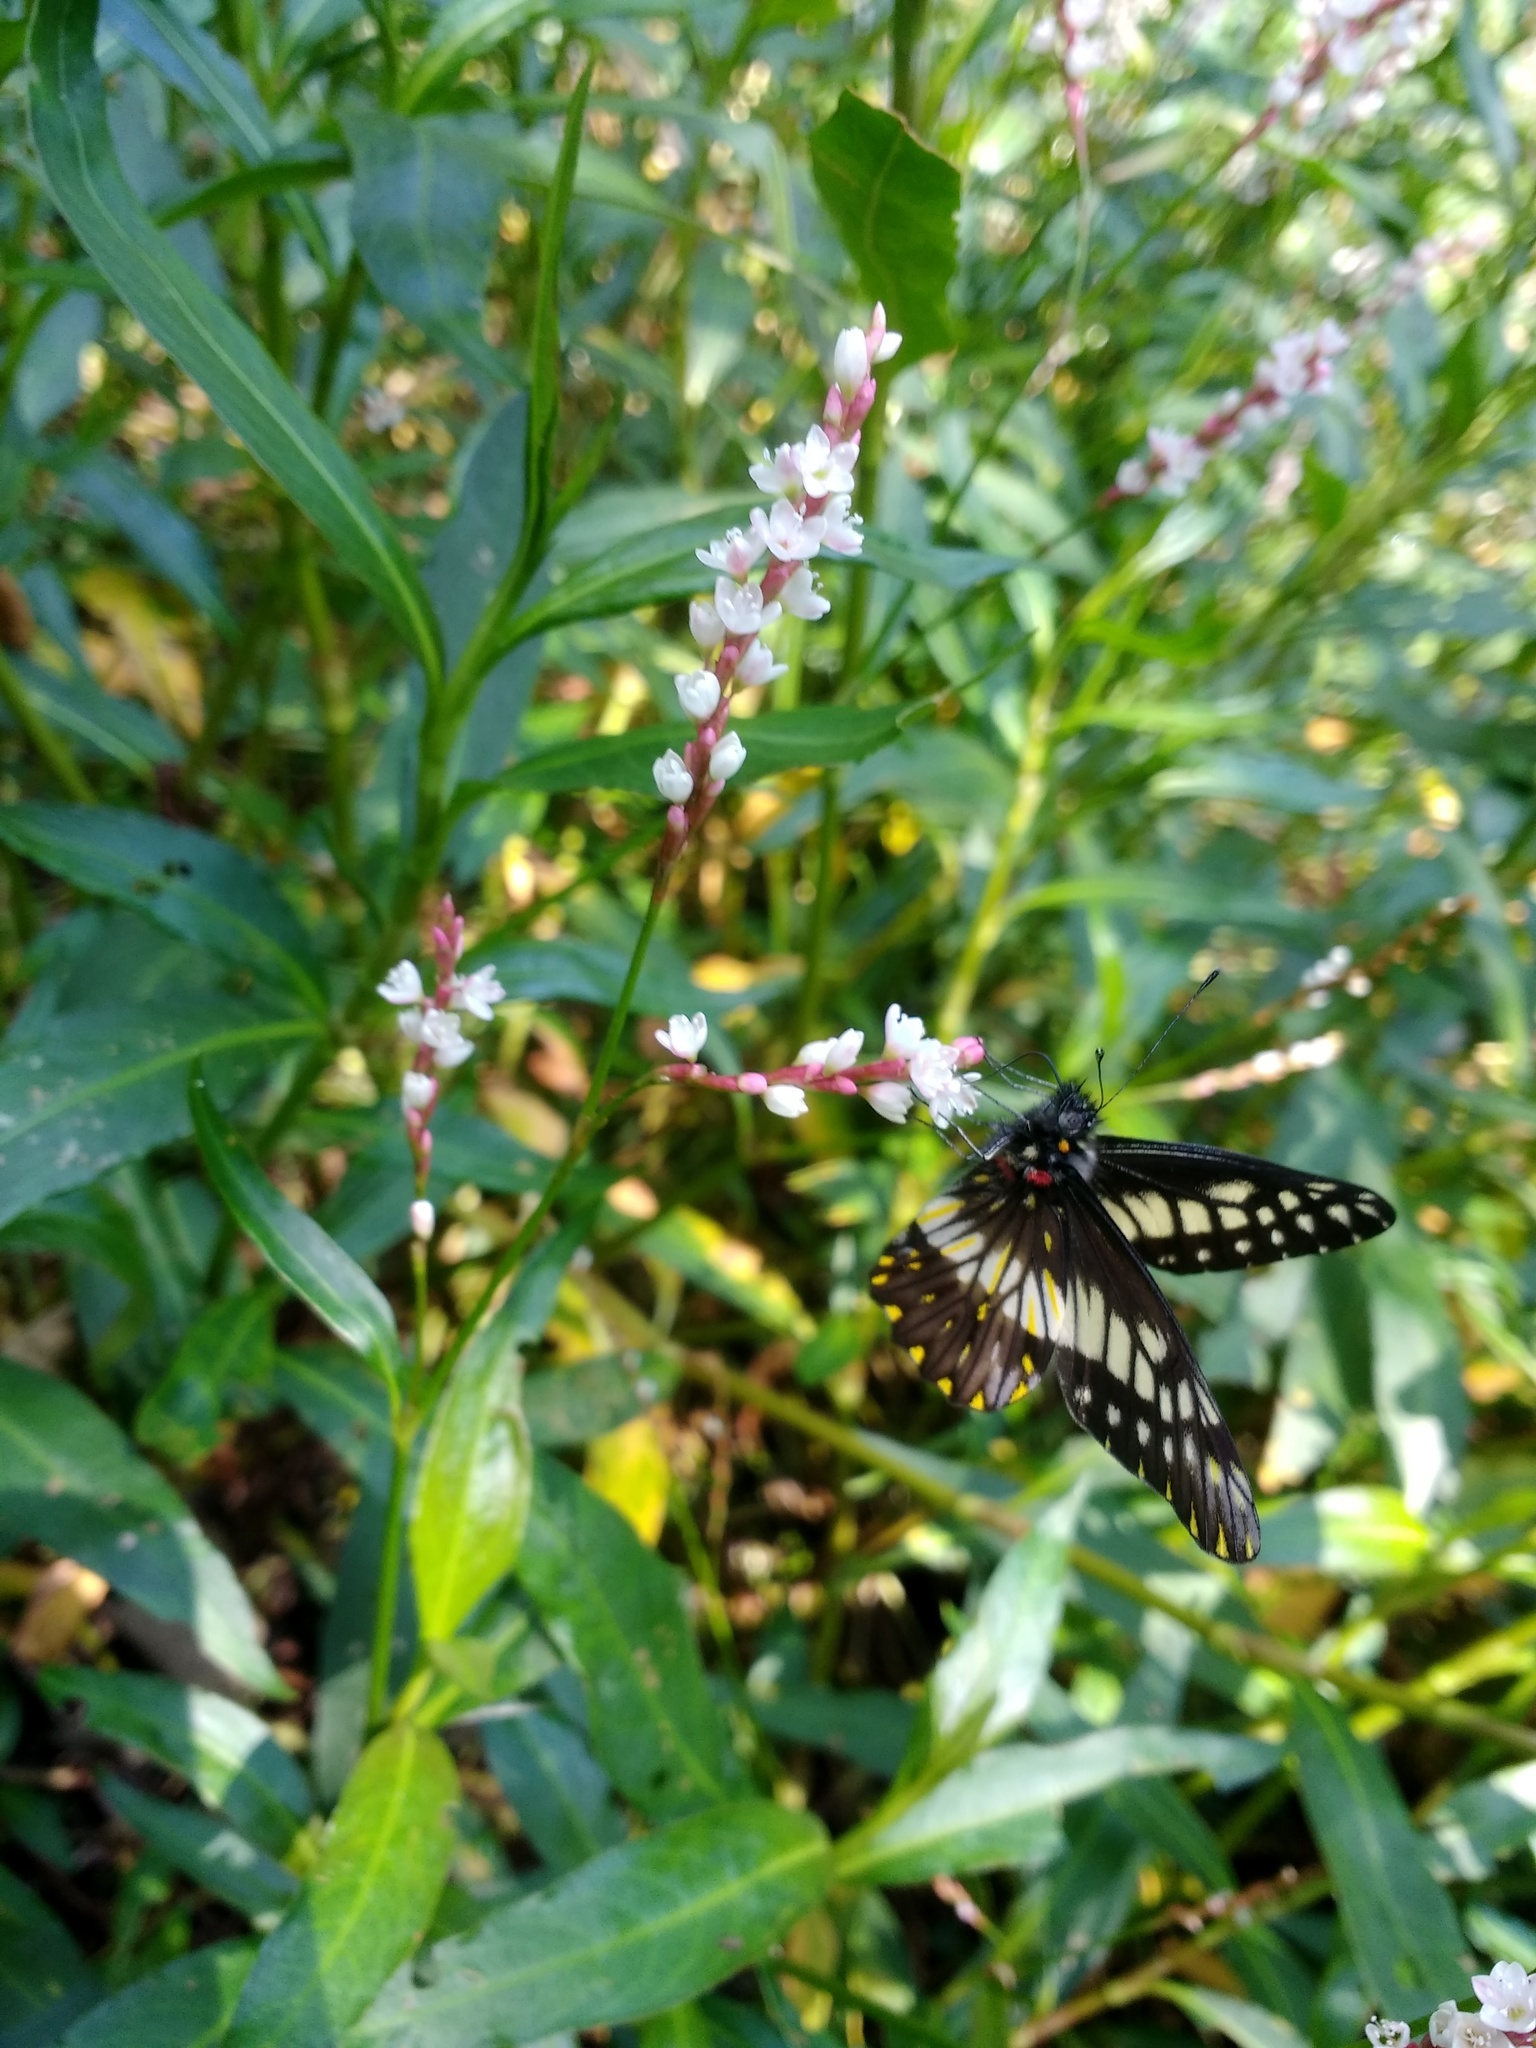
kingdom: Animalia
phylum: Arthropoda
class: Insecta
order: Lepidoptera
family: Pieridae
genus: Archonias
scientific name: Archonias nimbice
